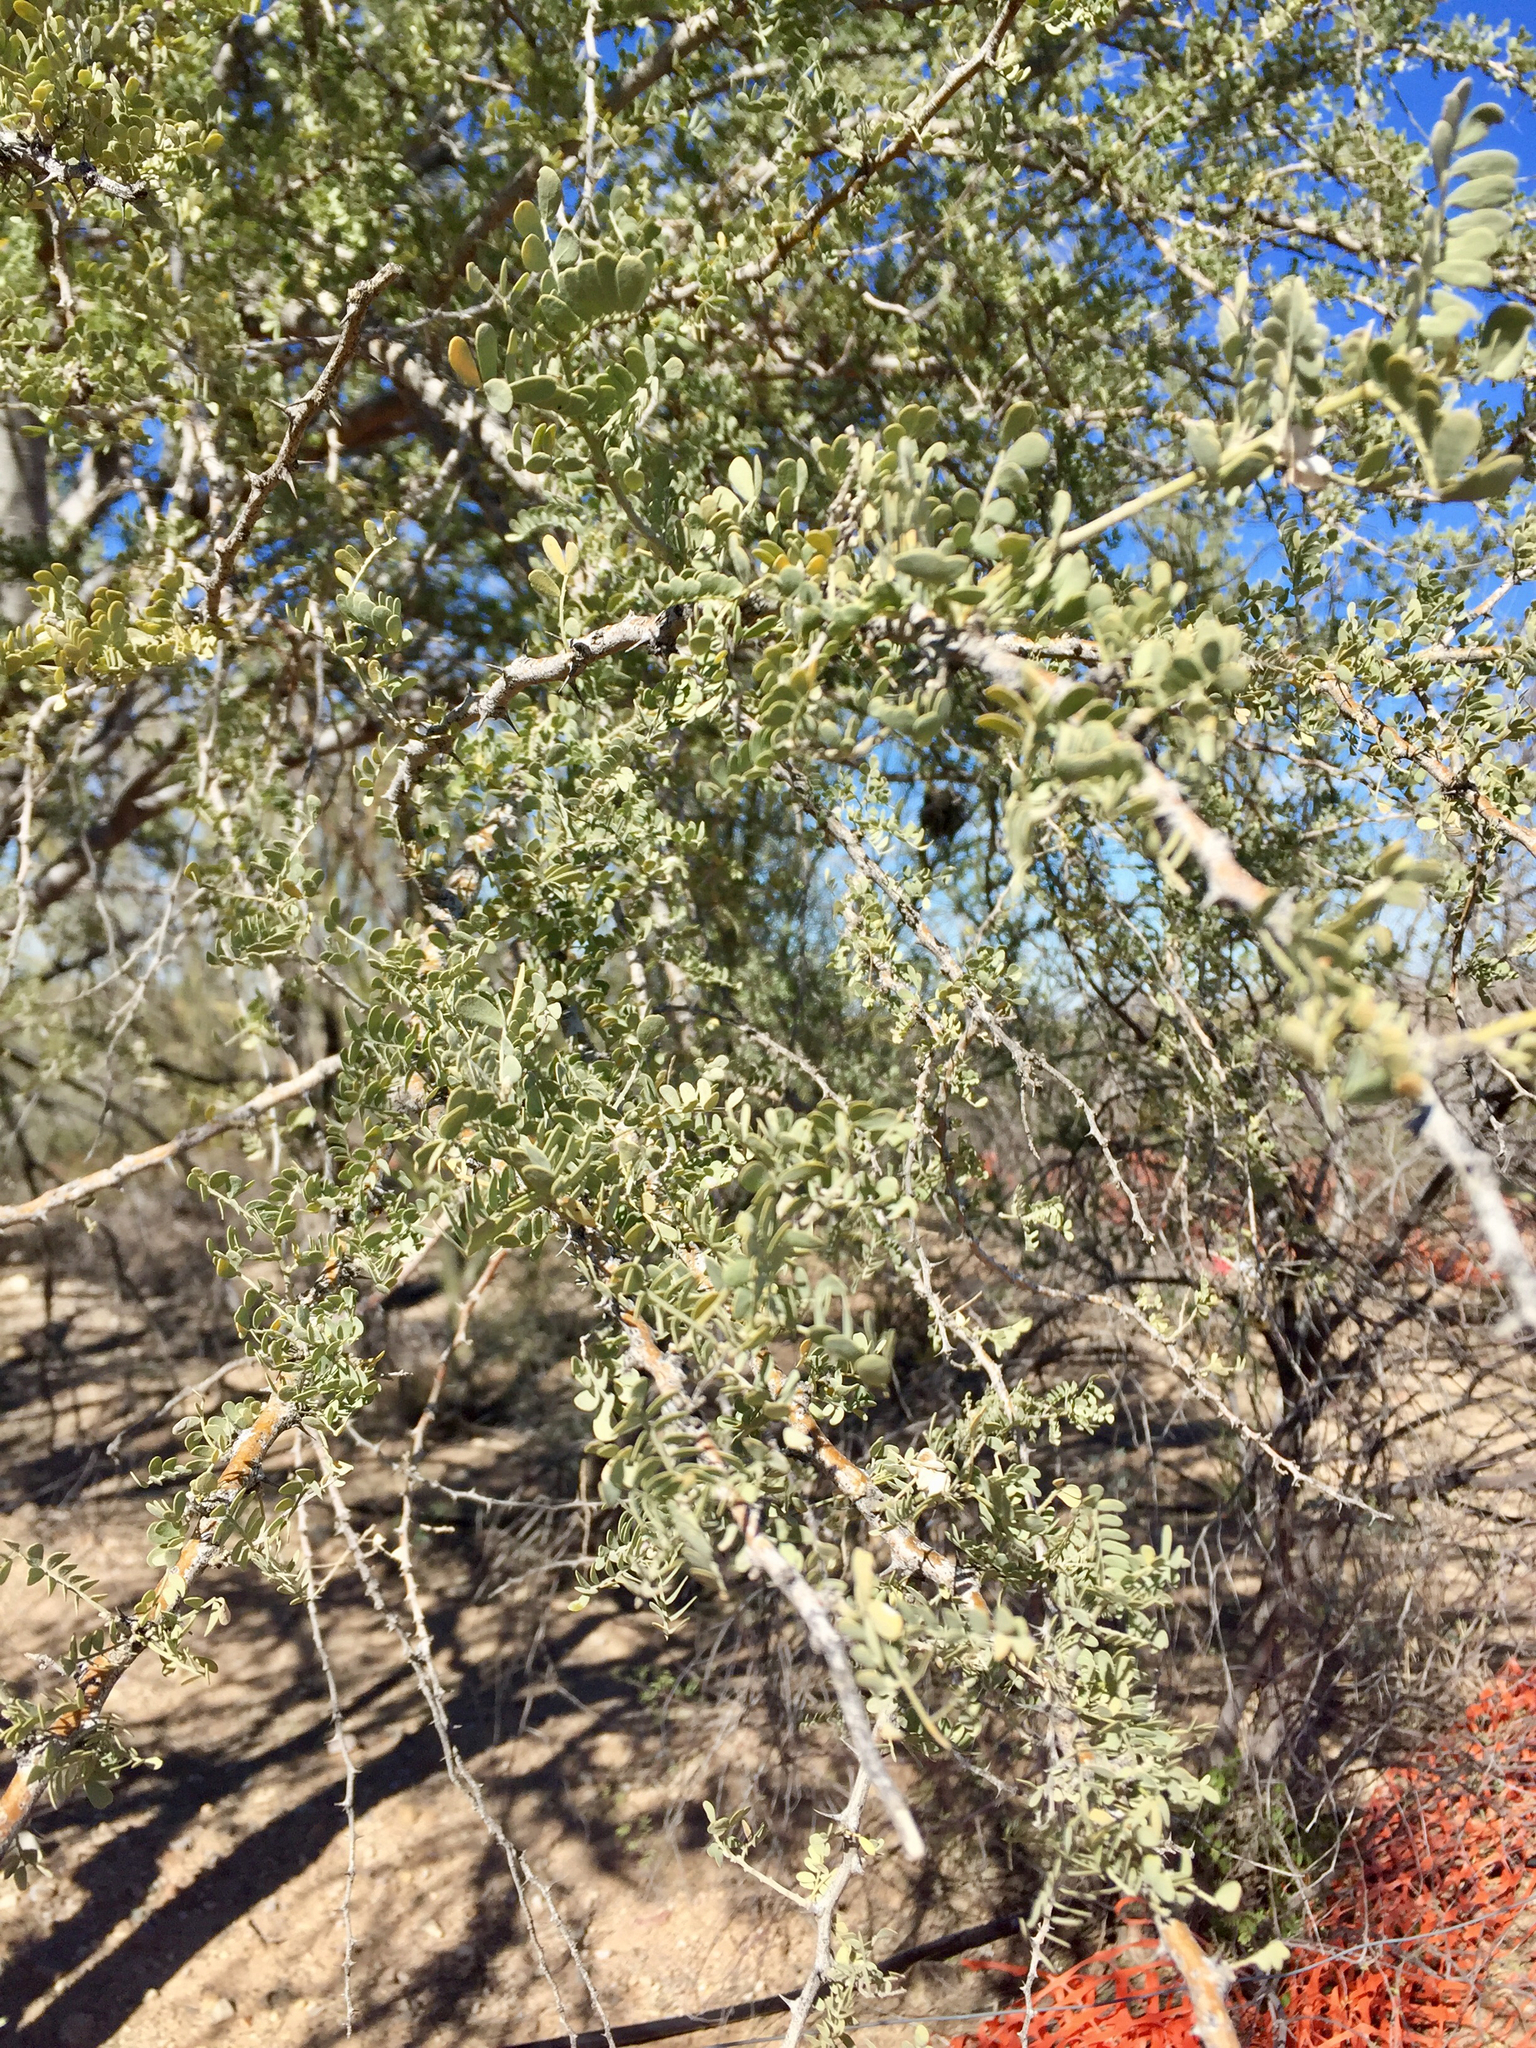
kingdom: Plantae
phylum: Tracheophyta
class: Magnoliopsida
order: Fabales
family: Fabaceae
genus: Olneya
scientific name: Olneya tesota
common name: Desert ironwood
